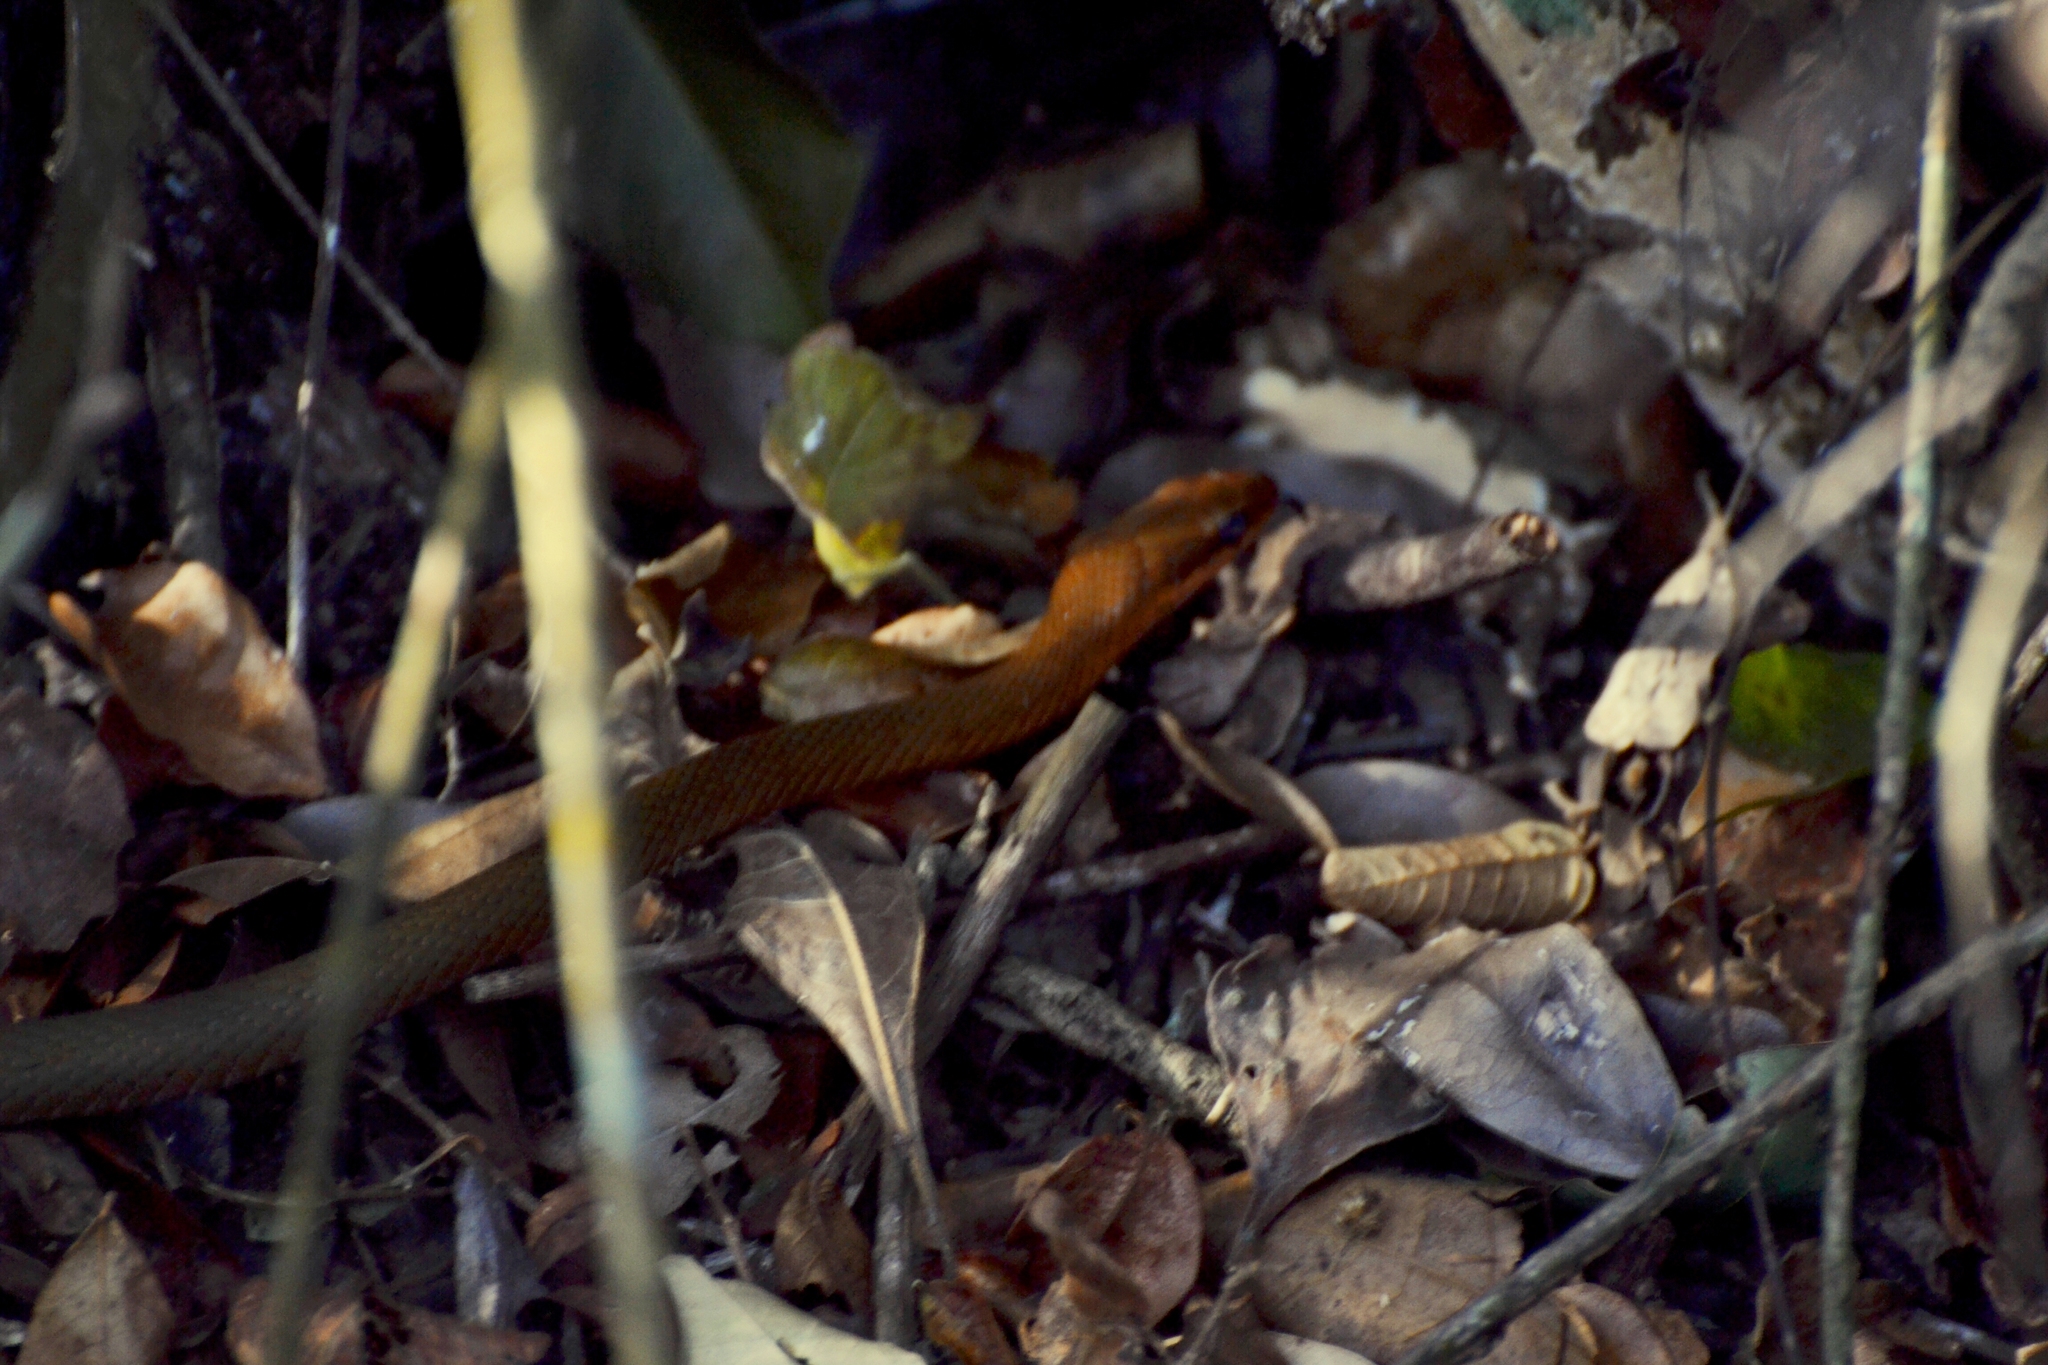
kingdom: Animalia
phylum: Chordata
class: Squamata
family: Colubridae
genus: Mastigodryas
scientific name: Mastigodryas melanolomus
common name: Salmon-bellied racer
